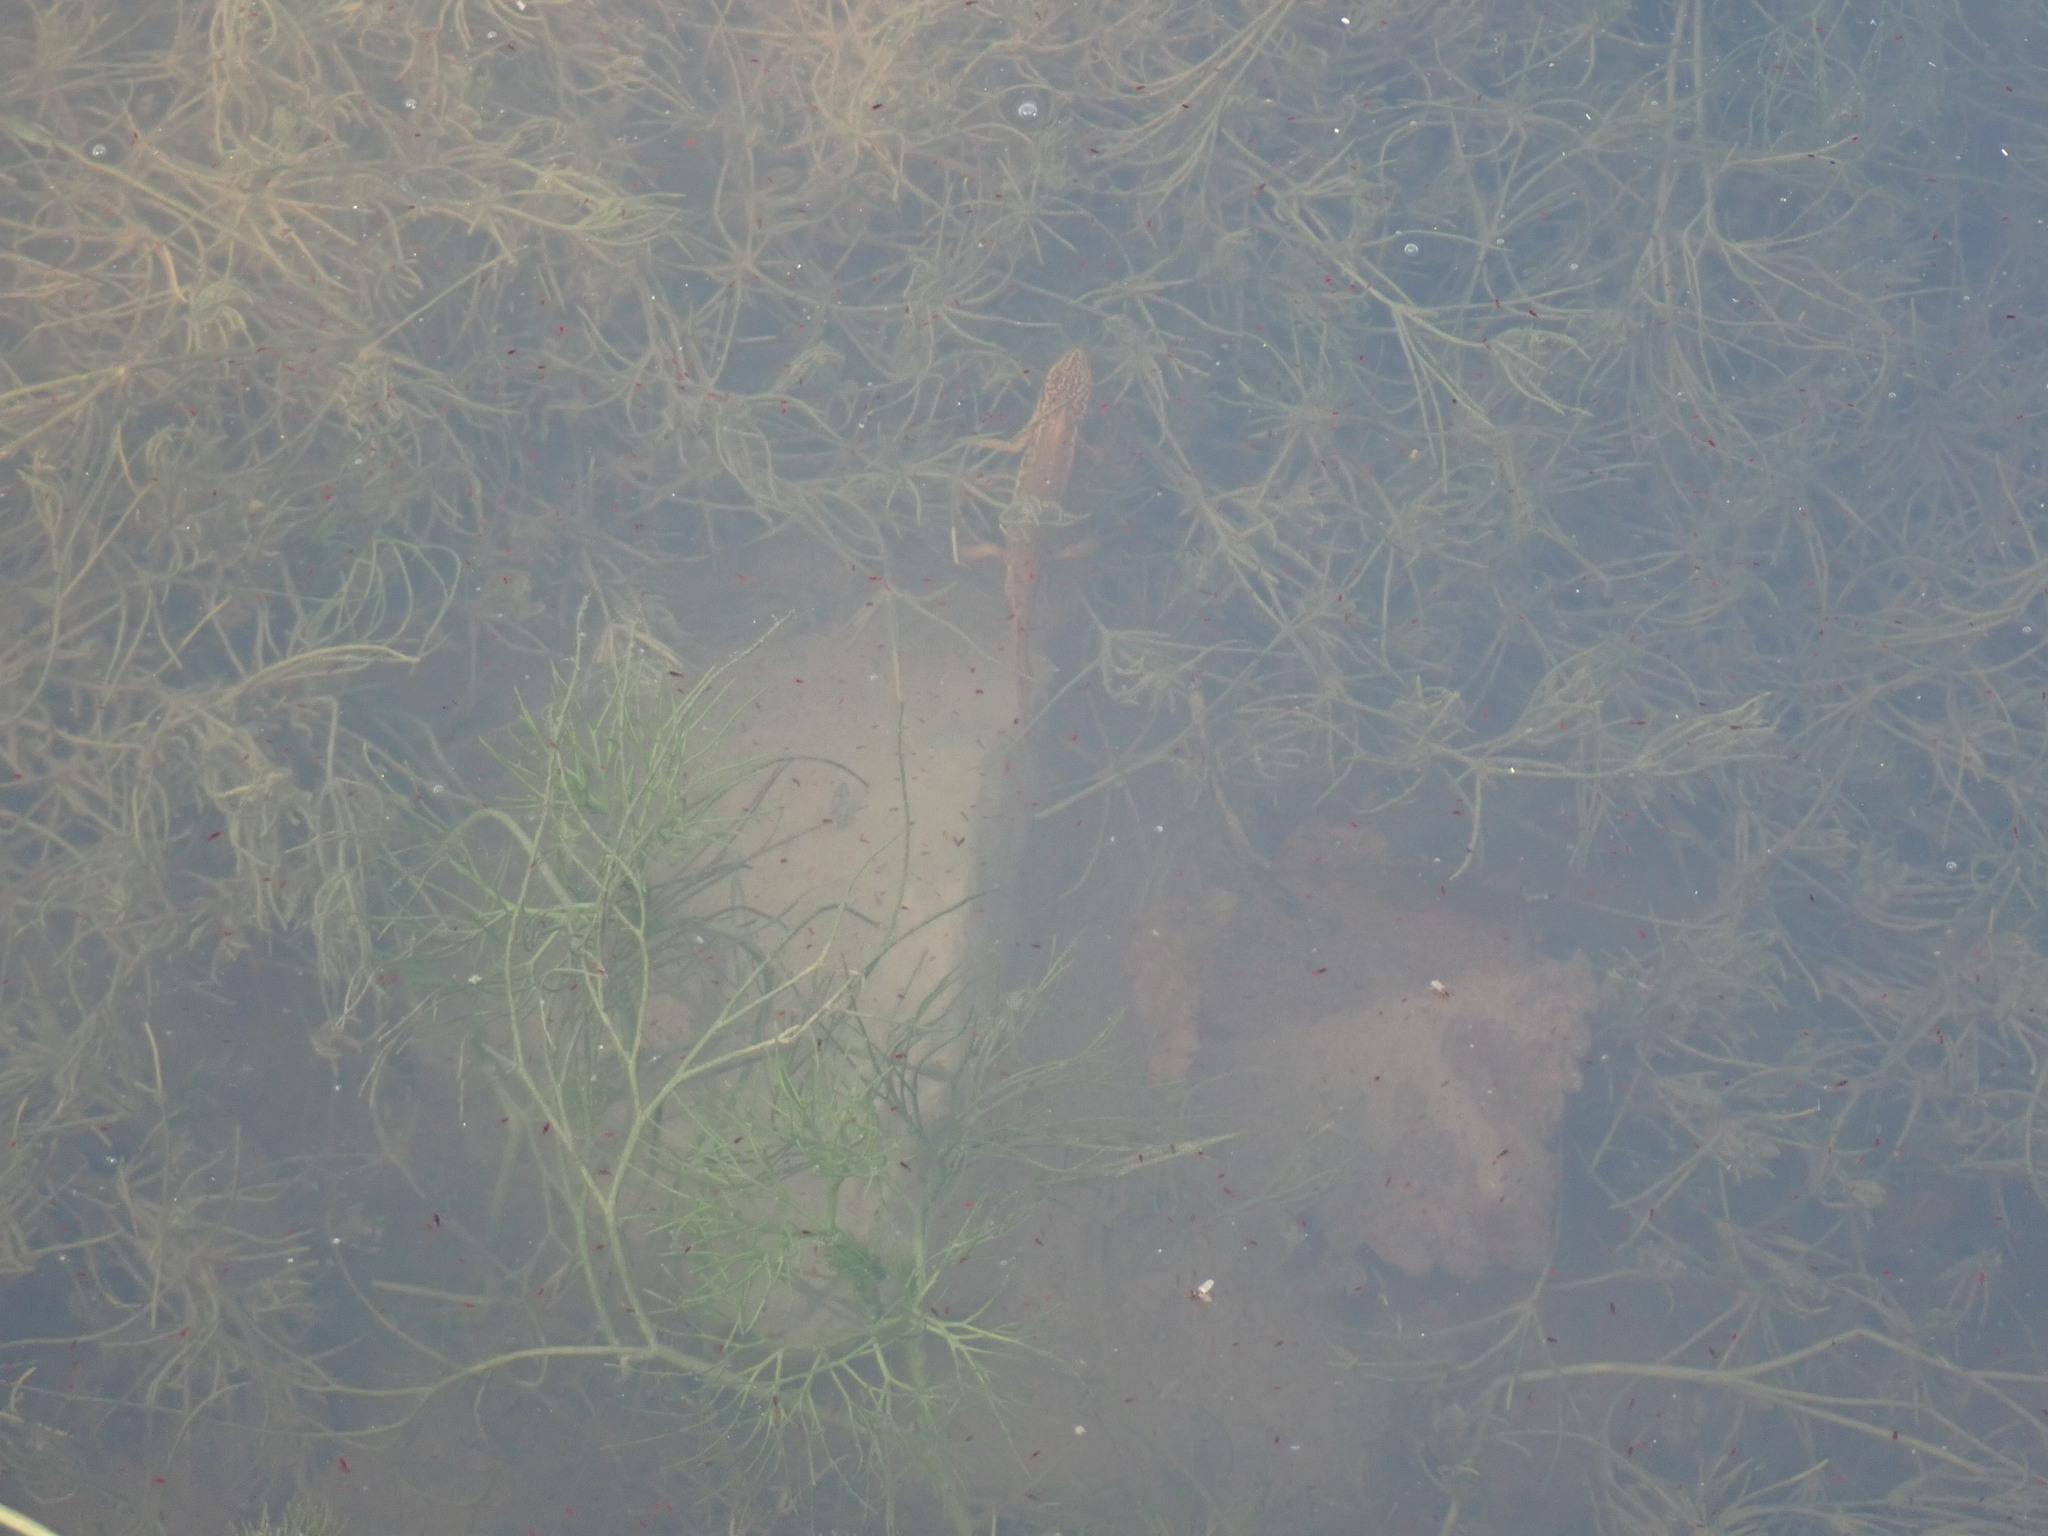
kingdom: Animalia
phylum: Chordata
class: Amphibia
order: Caudata
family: Salamandridae
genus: Lissotriton
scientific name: Lissotriton helveticus
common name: Palmate newt
